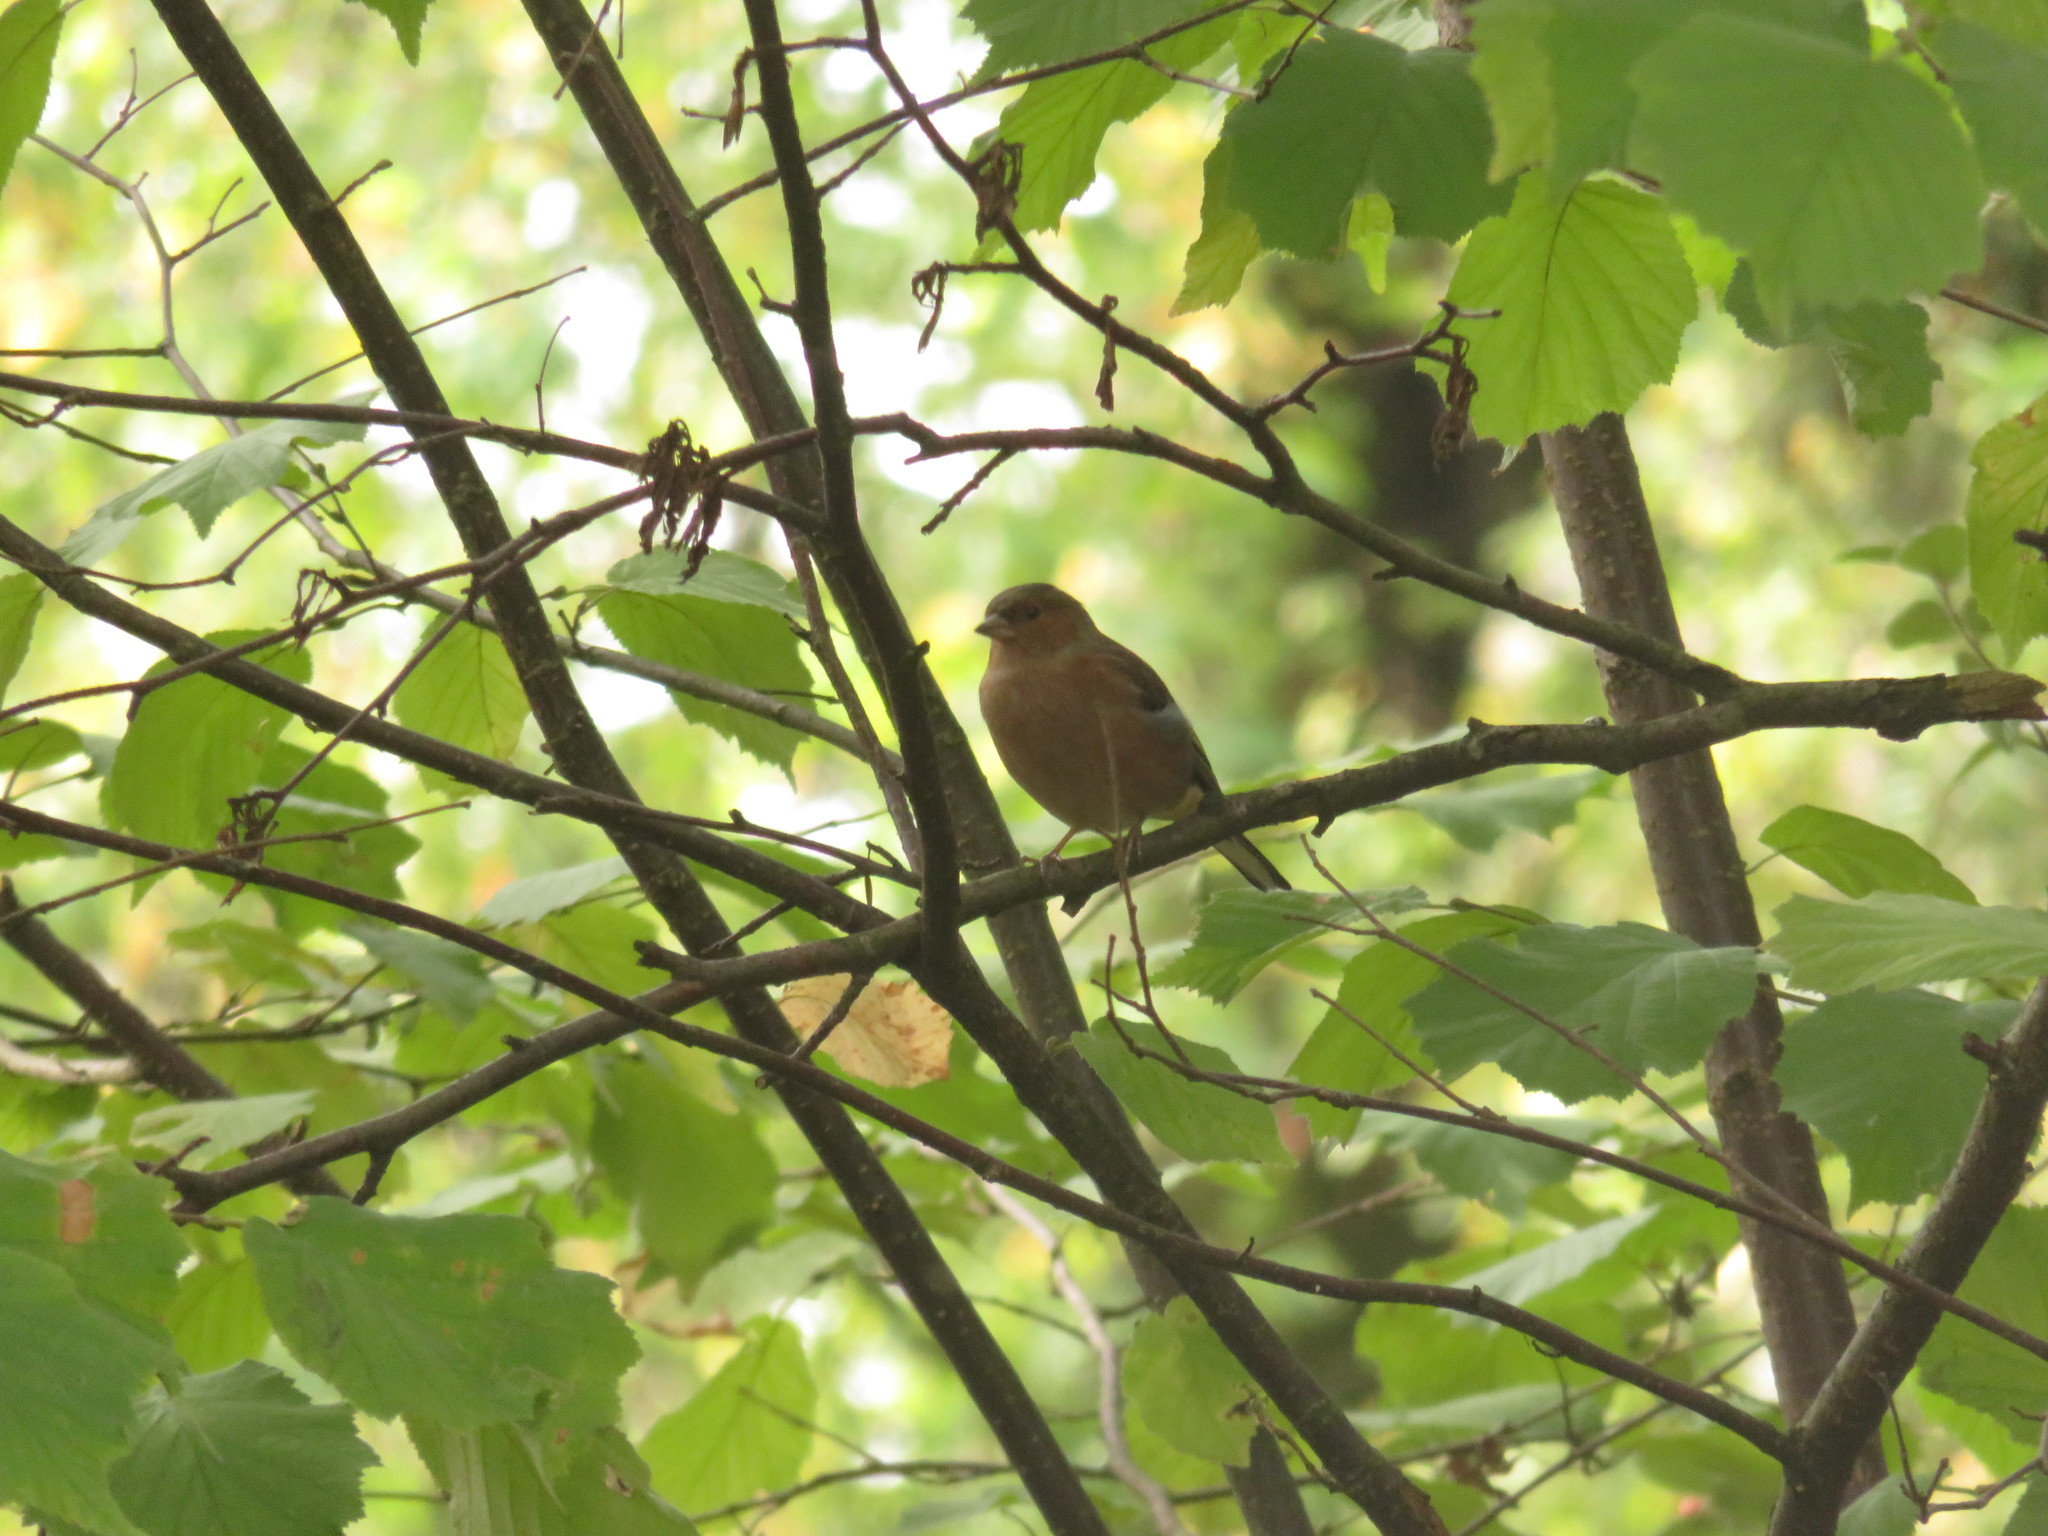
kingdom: Animalia
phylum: Chordata
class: Aves
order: Passeriformes
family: Fringillidae
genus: Fringilla
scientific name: Fringilla coelebs
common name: Common chaffinch
